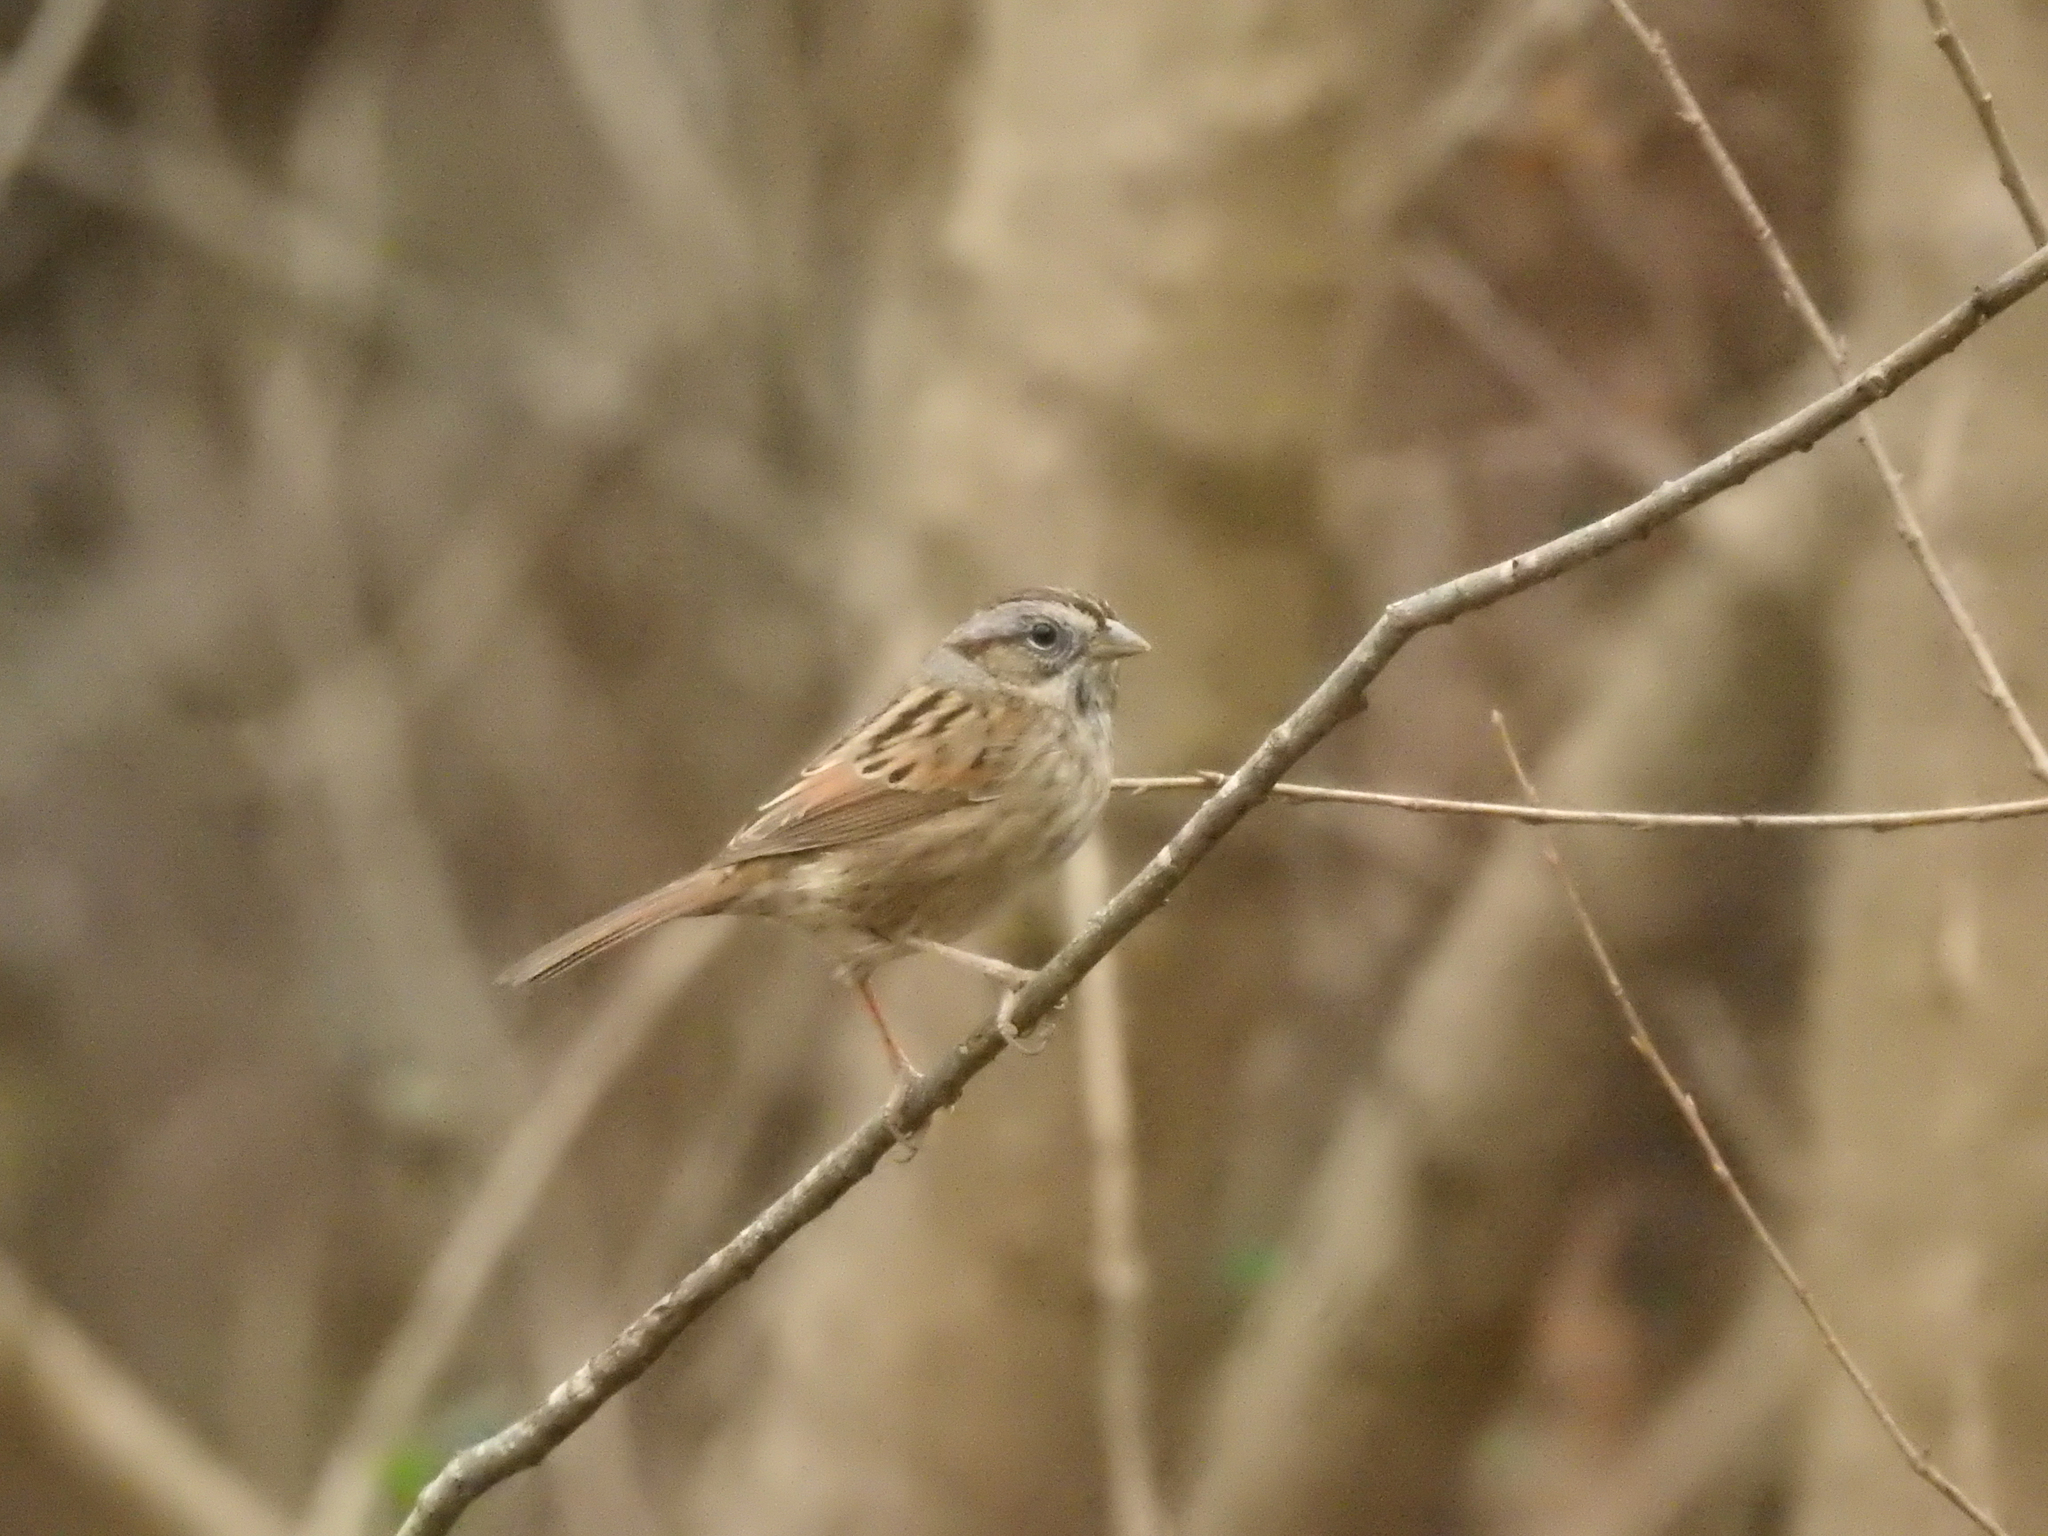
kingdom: Animalia
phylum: Chordata
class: Aves
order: Passeriformes
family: Passerellidae
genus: Melospiza
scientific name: Melospiza georgiana
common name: Swamp sparrow
